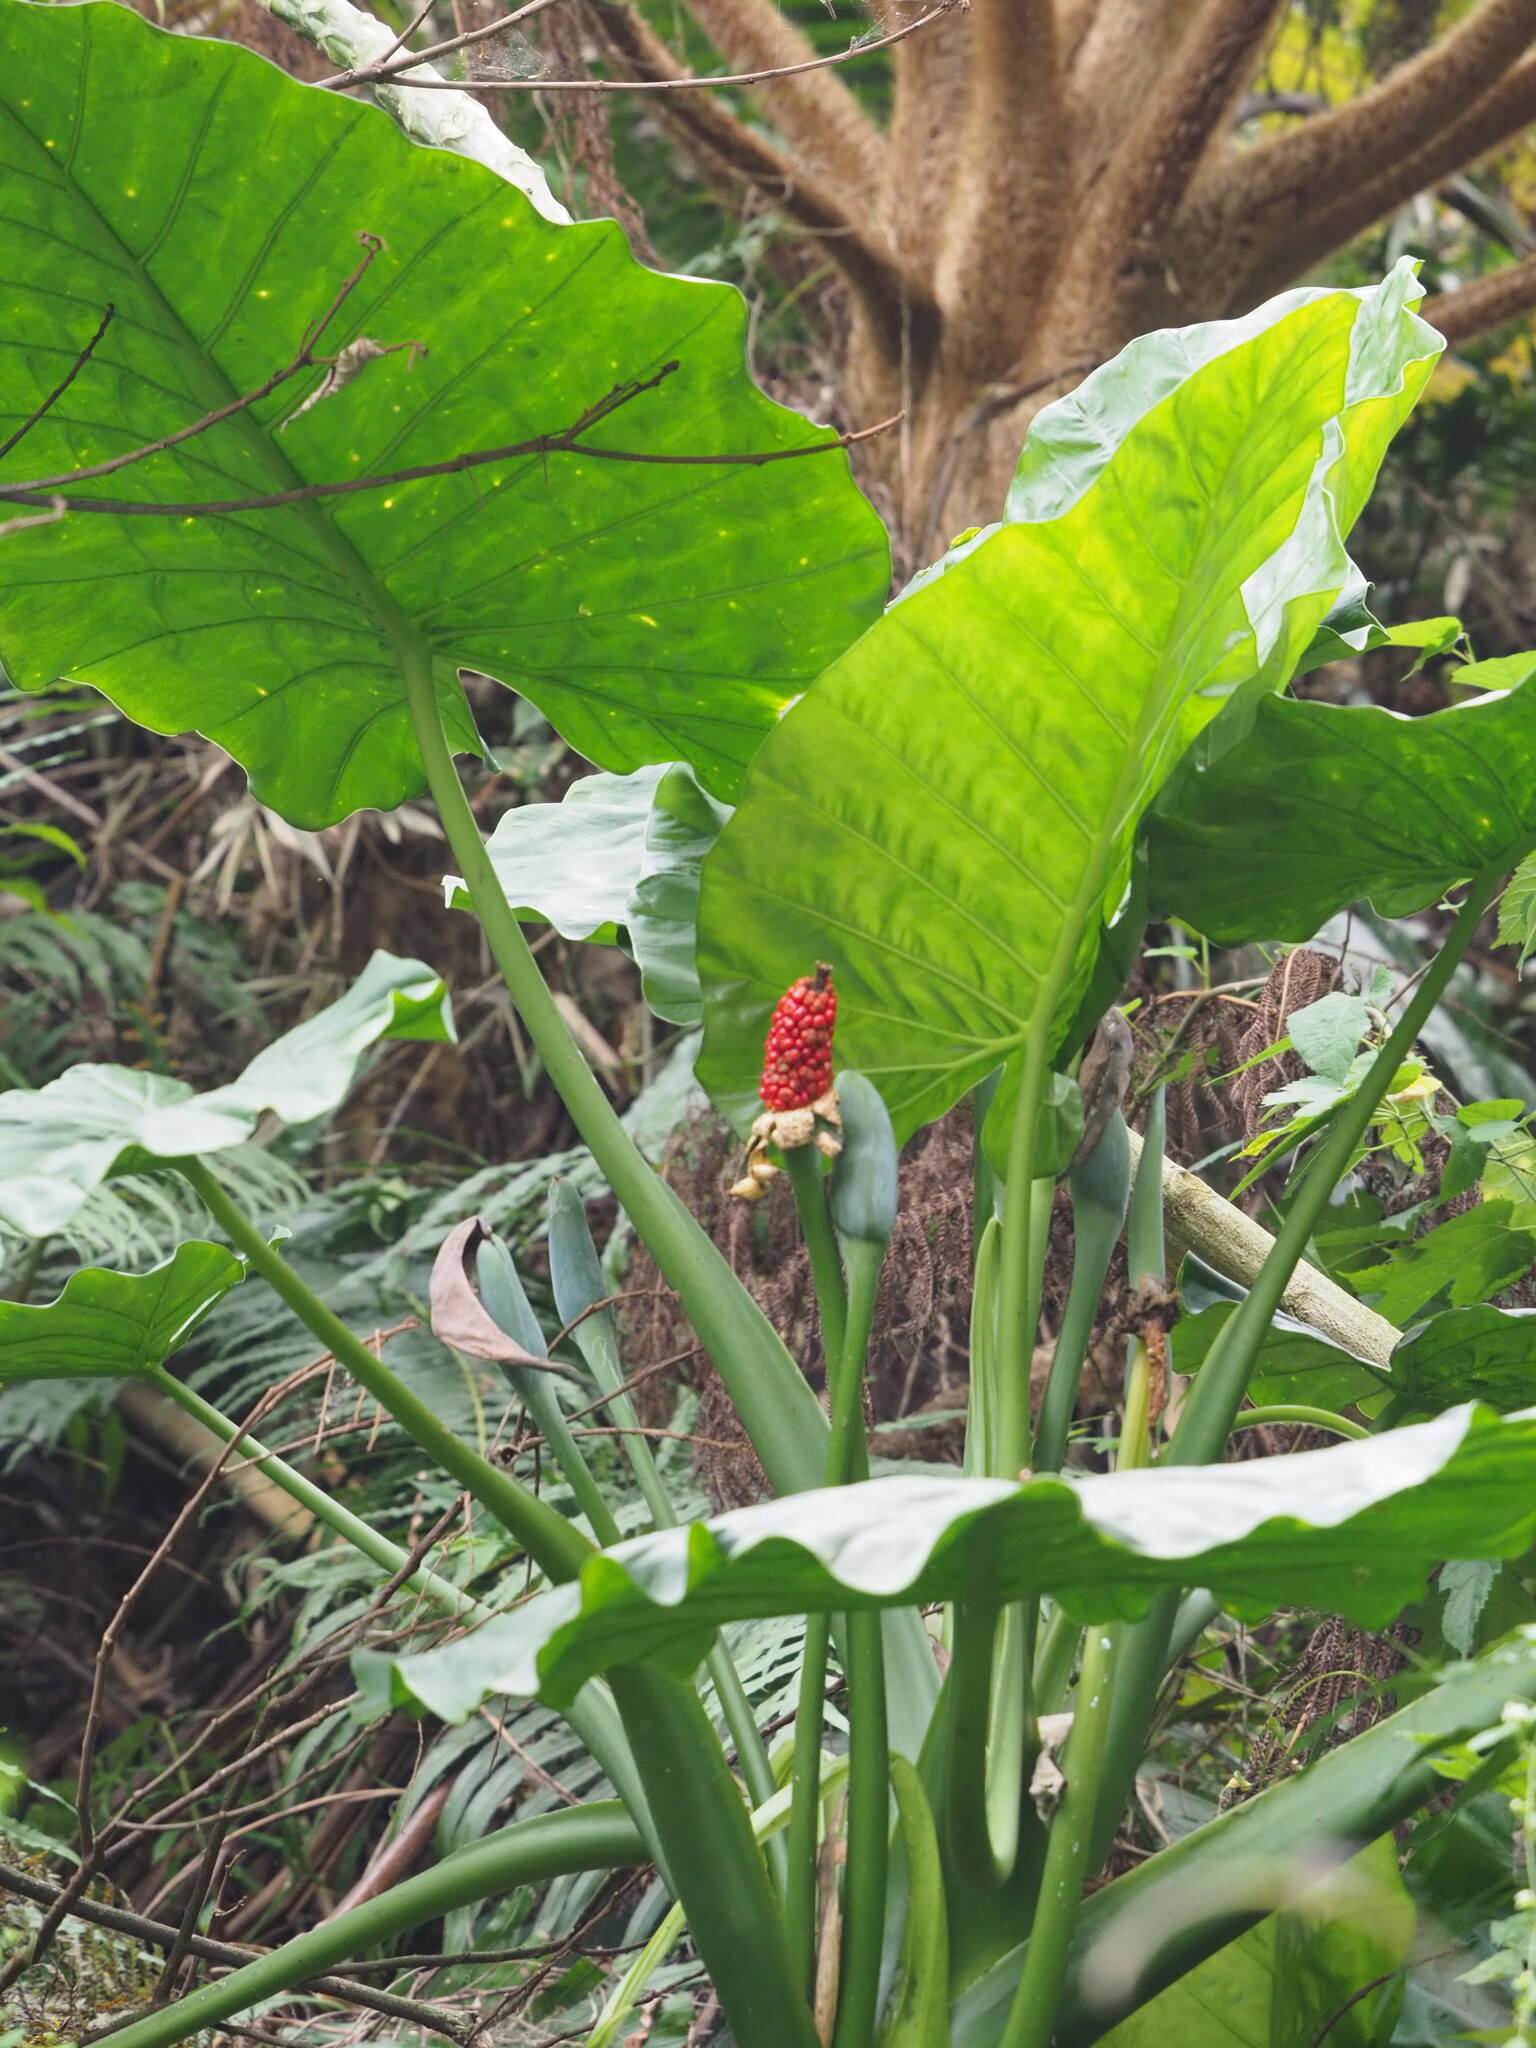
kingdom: Plantae
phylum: Tracheophyta
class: Liliopsida
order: Alismatales
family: Araceae
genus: Alocasia
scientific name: Alocasia odora
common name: Asian taro
